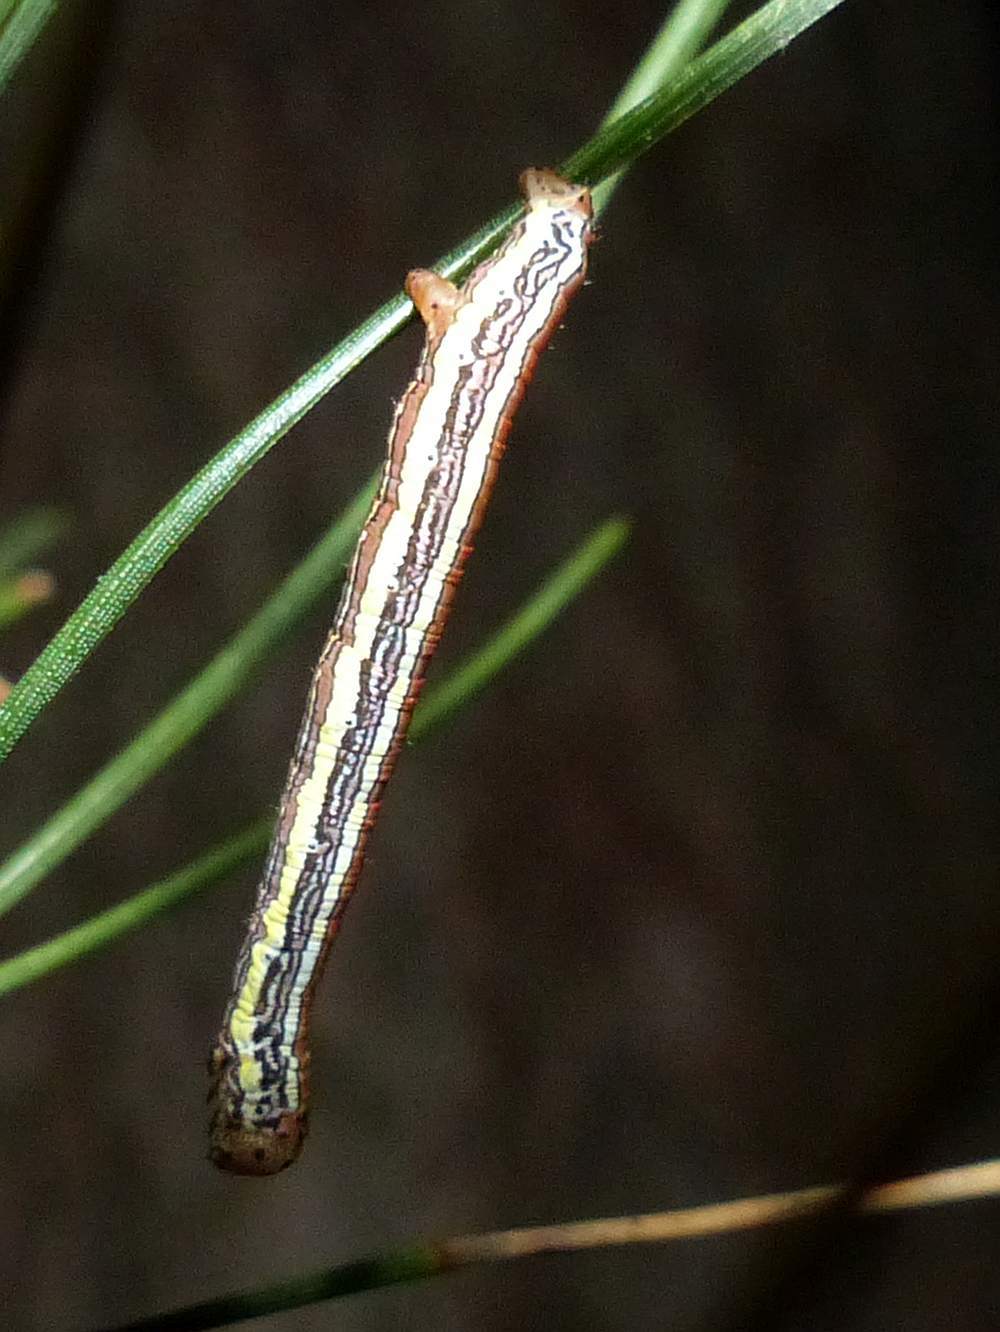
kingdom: Animalia
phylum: Arthropoda
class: Insecta
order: Lepidoptera
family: Geometridae
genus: Nepytia
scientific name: Nepytia canosaria
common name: False hemlock looper
